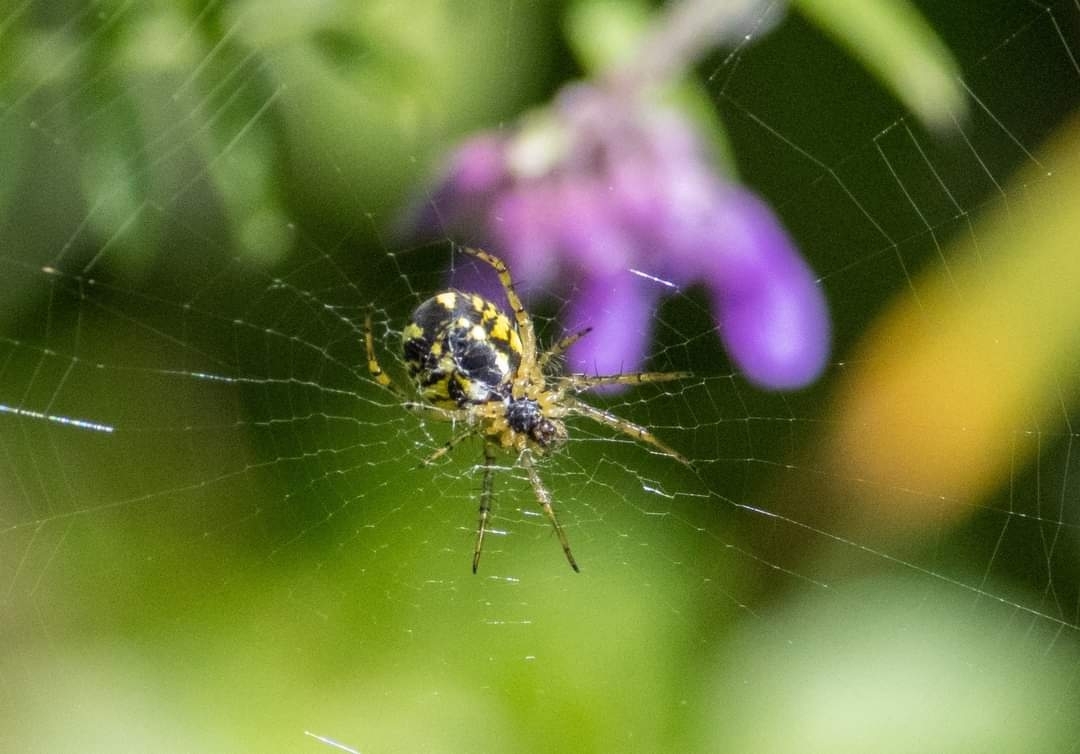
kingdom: Animalia
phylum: Arthropoda
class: Arachnida
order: Araneae
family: Araneidae
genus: Mangora
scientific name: Mangora acalypha
